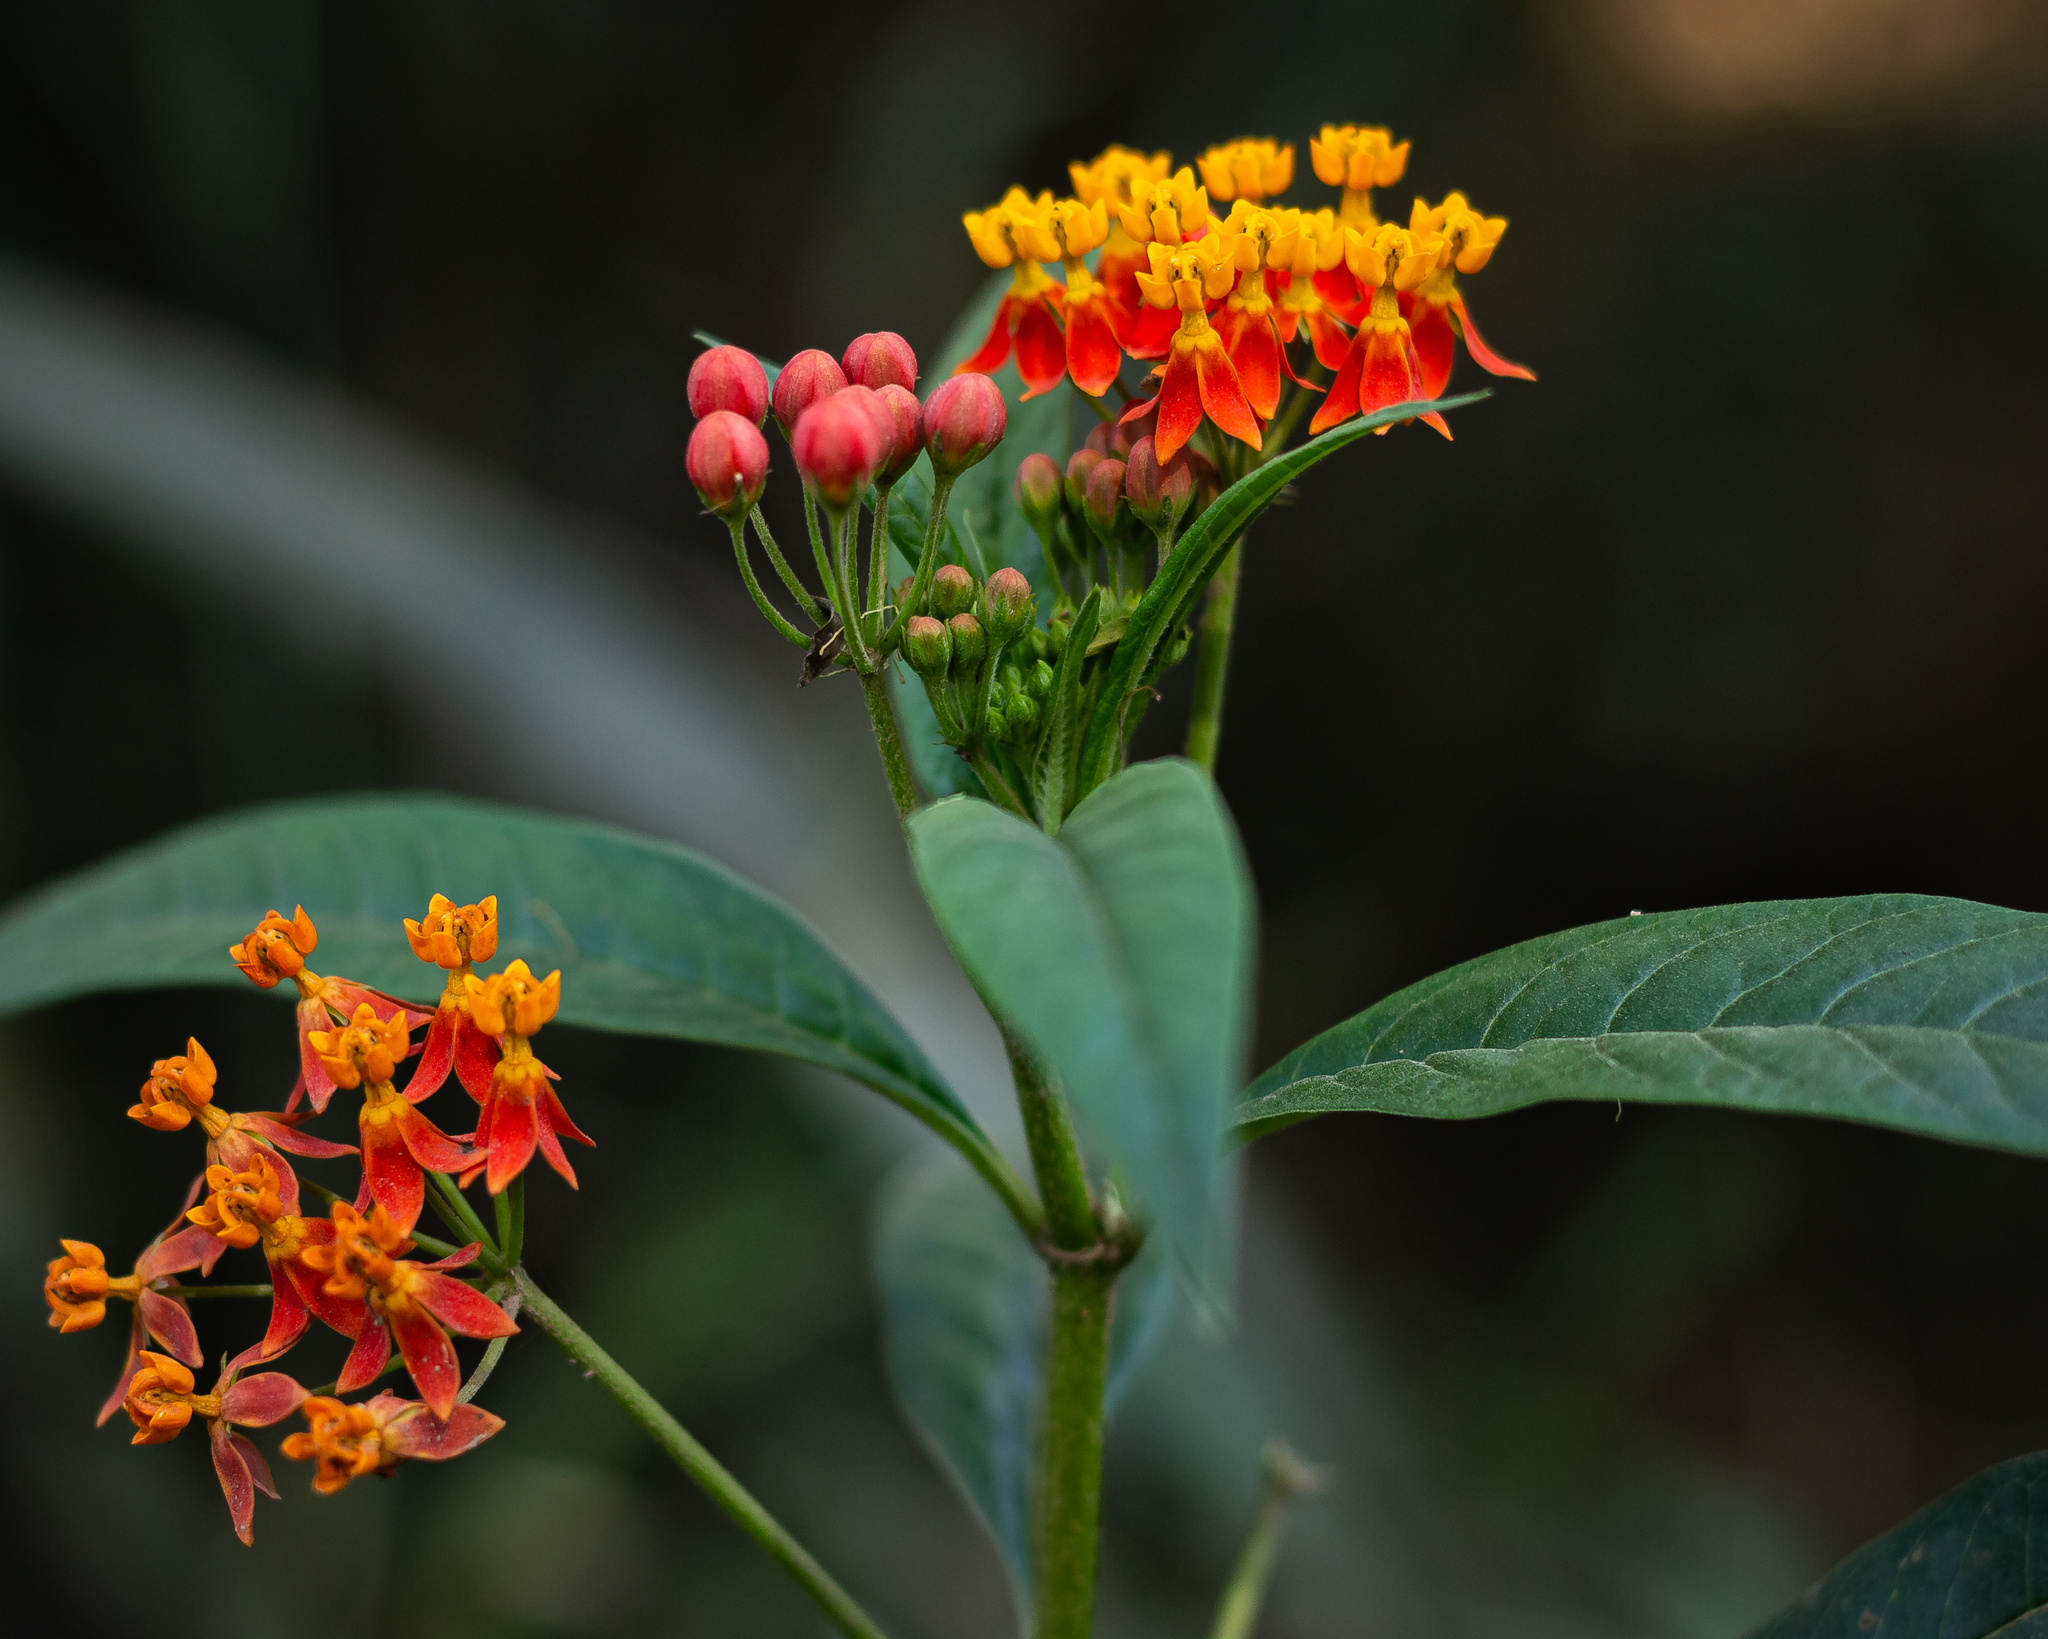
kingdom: Plantae
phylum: Tracheophyta
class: Magnoliopsida
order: Gentianales
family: Apocynaceae
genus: Asclepias
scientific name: Asclepias curassavica
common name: Bloodflower
